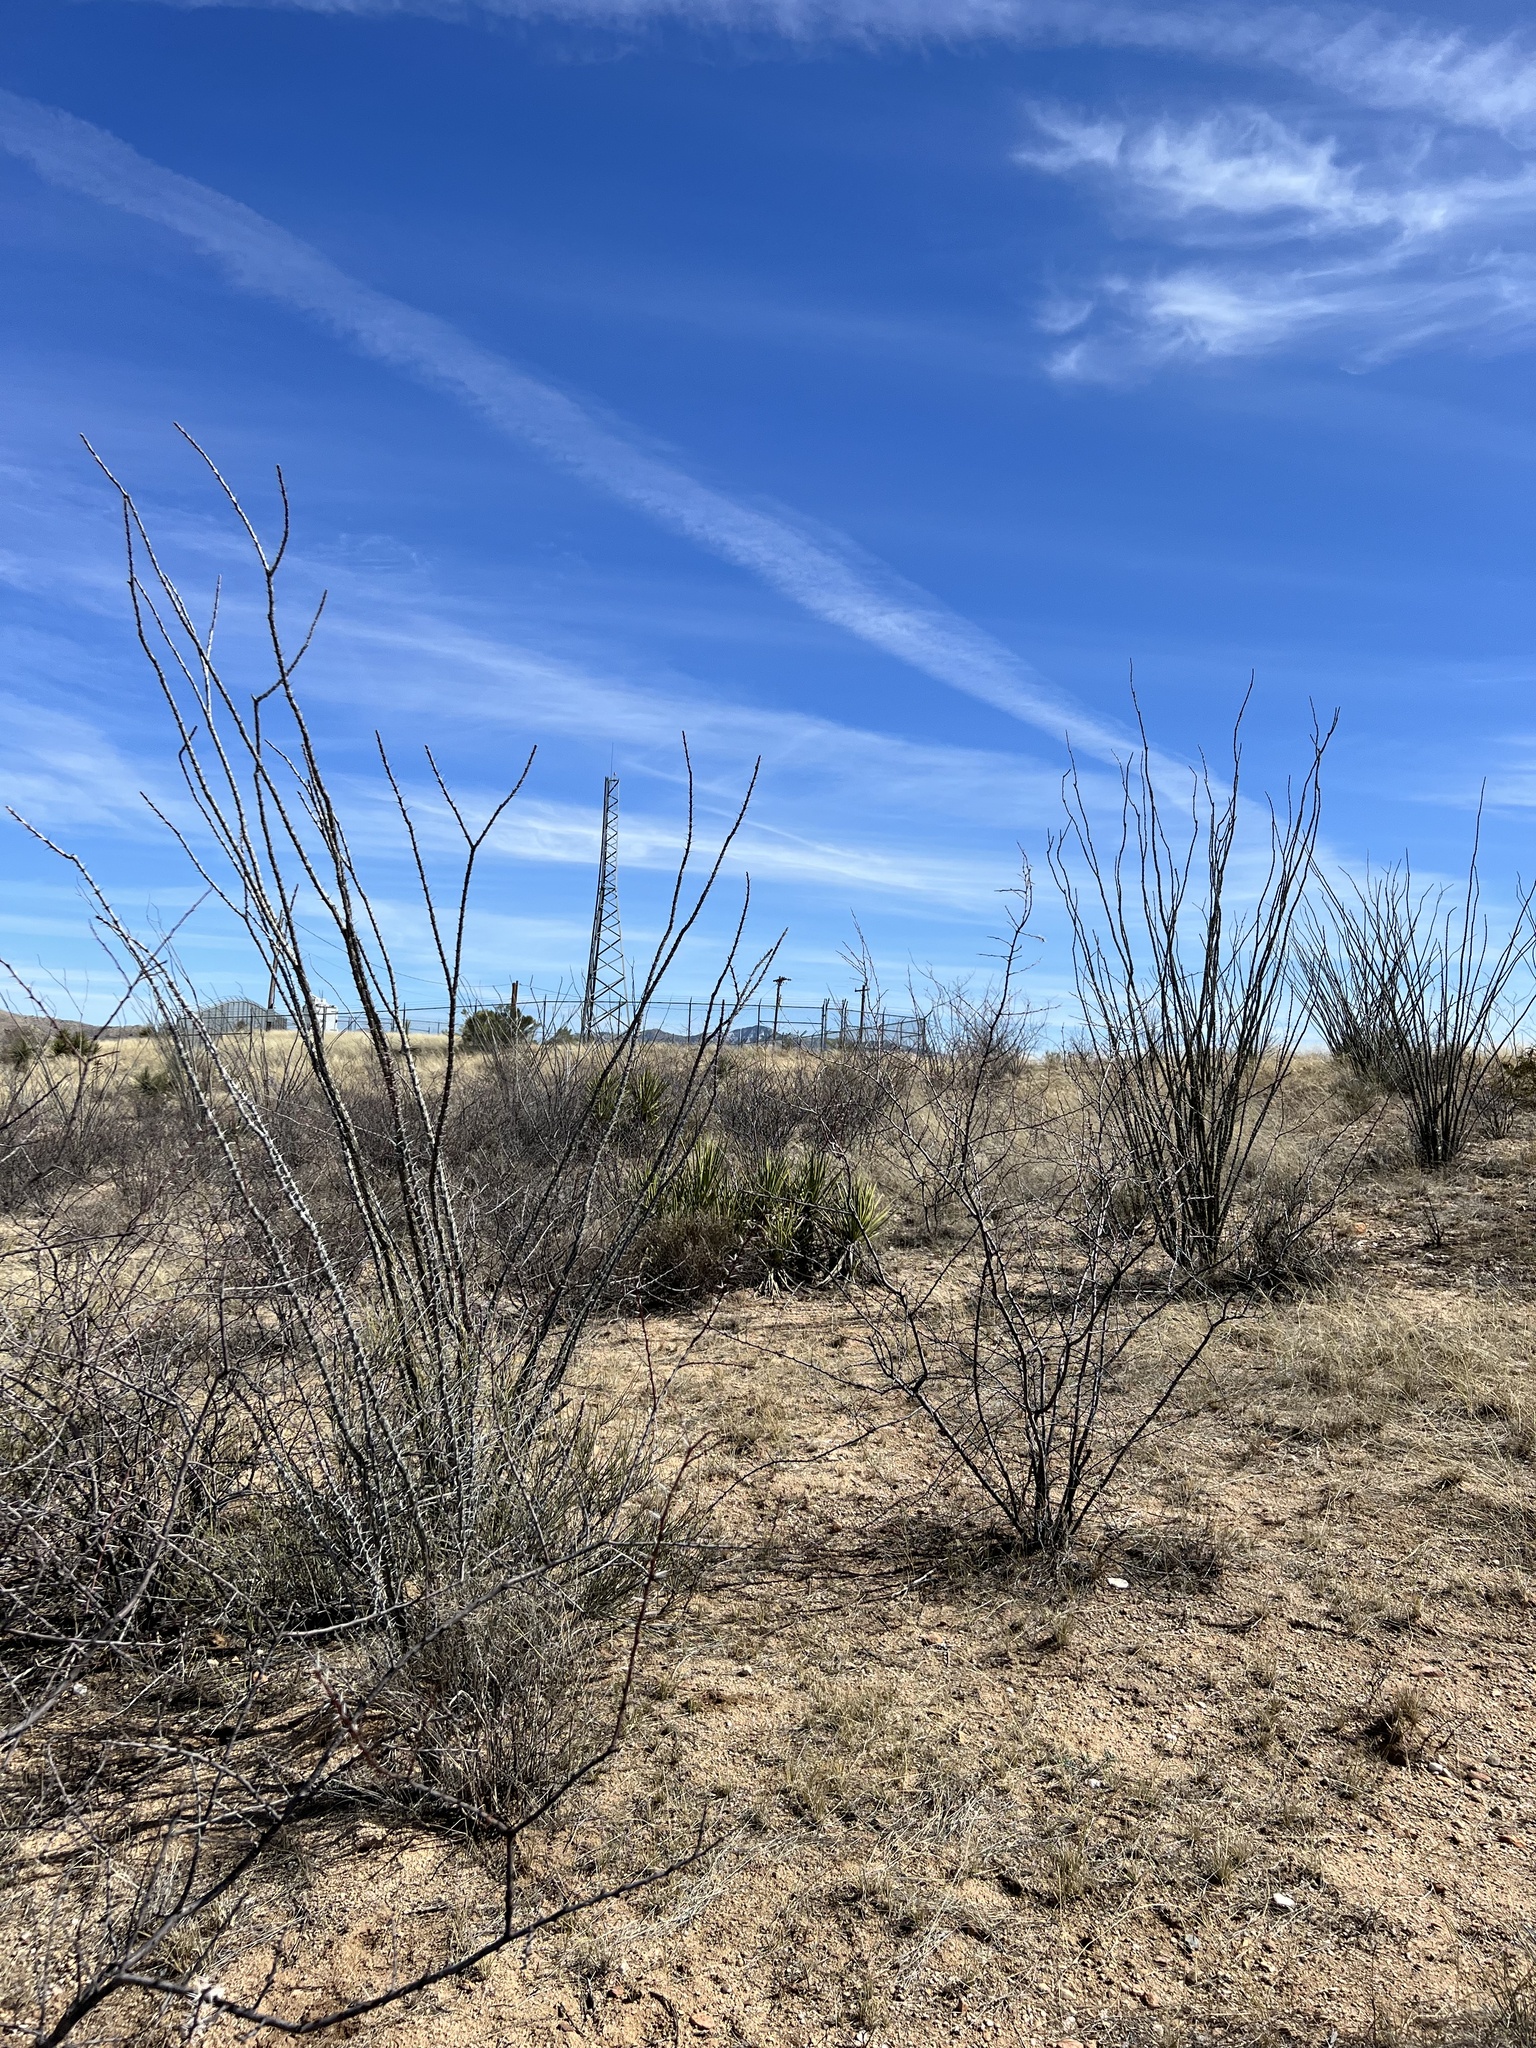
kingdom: Plantae
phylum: Tracheophyta
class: Magnoliopsida
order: Ericales
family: Fouquieriaceae
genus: Fouquieria
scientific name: Fouquieria splendens
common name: Vine-cactus
